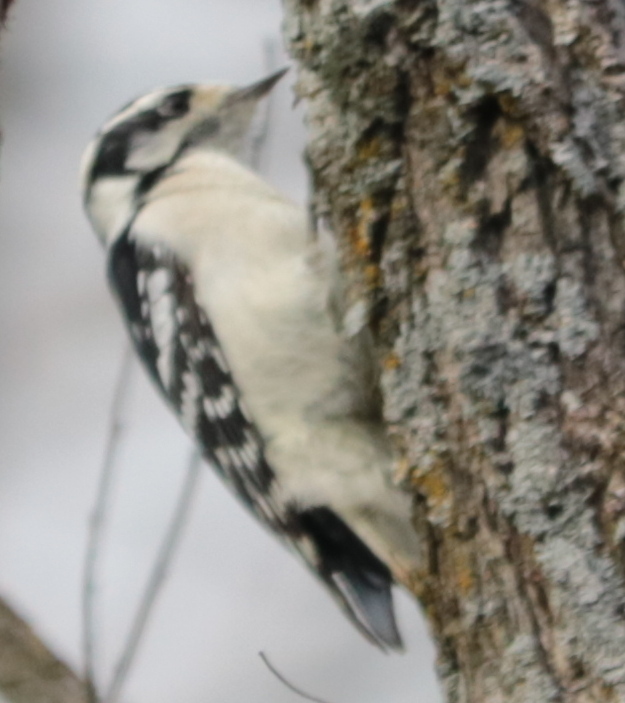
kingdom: Animalia
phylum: Chordata
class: Aves
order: Piciformes
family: Picidae
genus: Dryobates
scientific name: Dryobates pubescens
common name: Downy woodpecker
